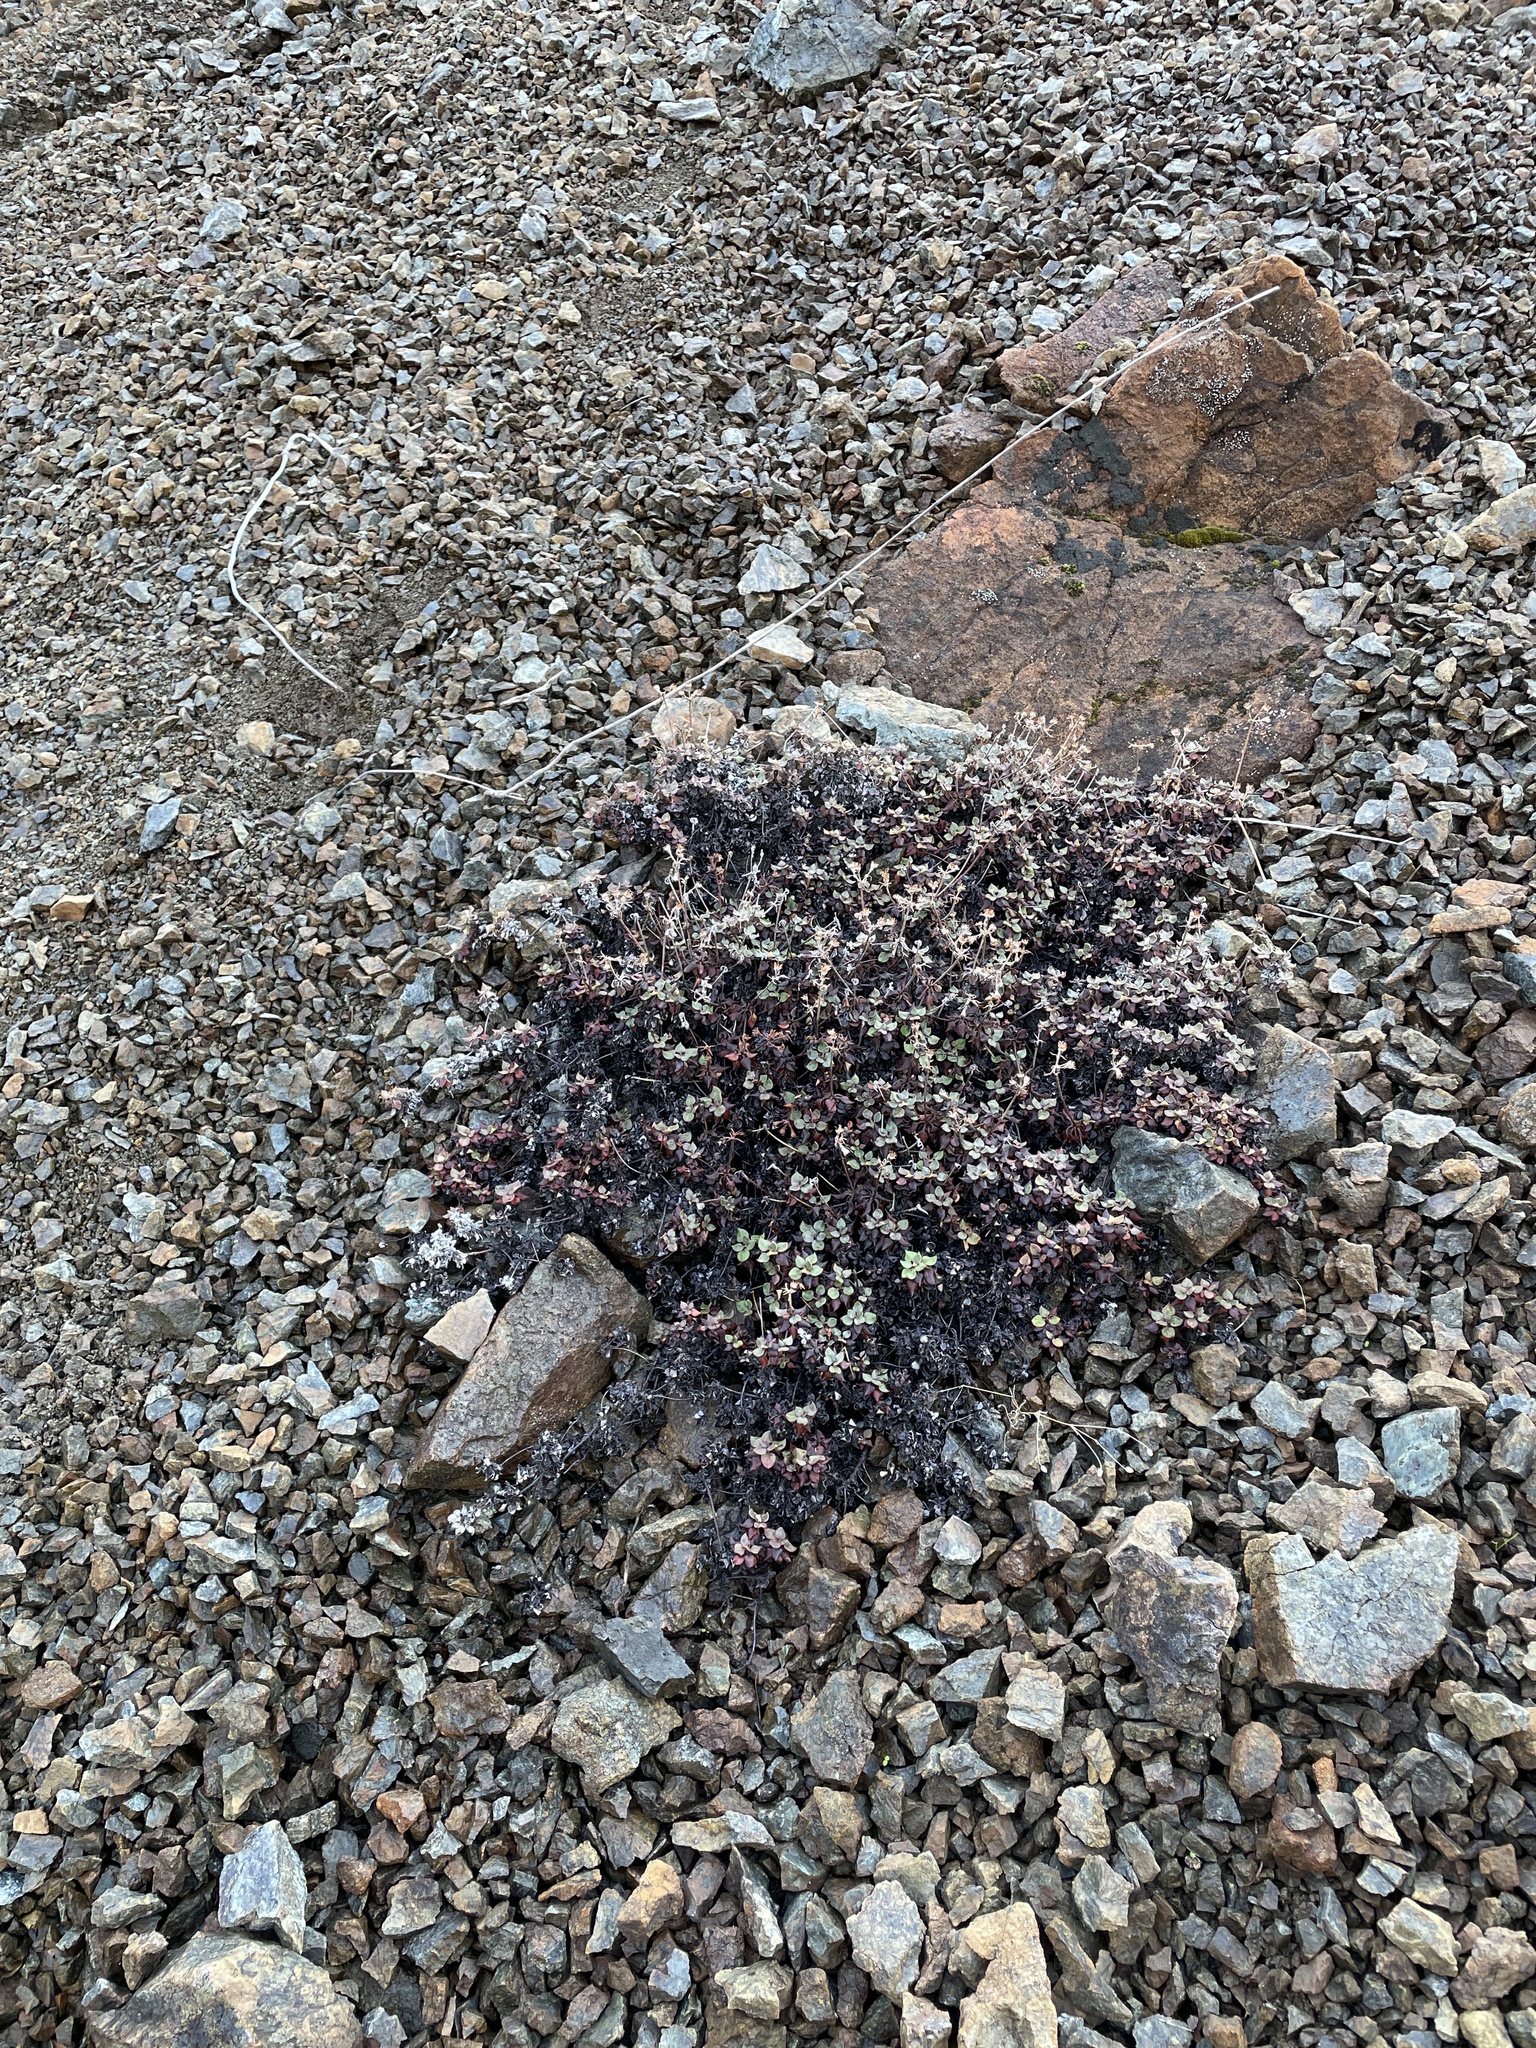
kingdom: Plantae
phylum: Tracheophyta
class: Magnoliopsida
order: Caryophyllales
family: Polygonaceae
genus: Eriogonum
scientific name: Eriogonum cedrorum
